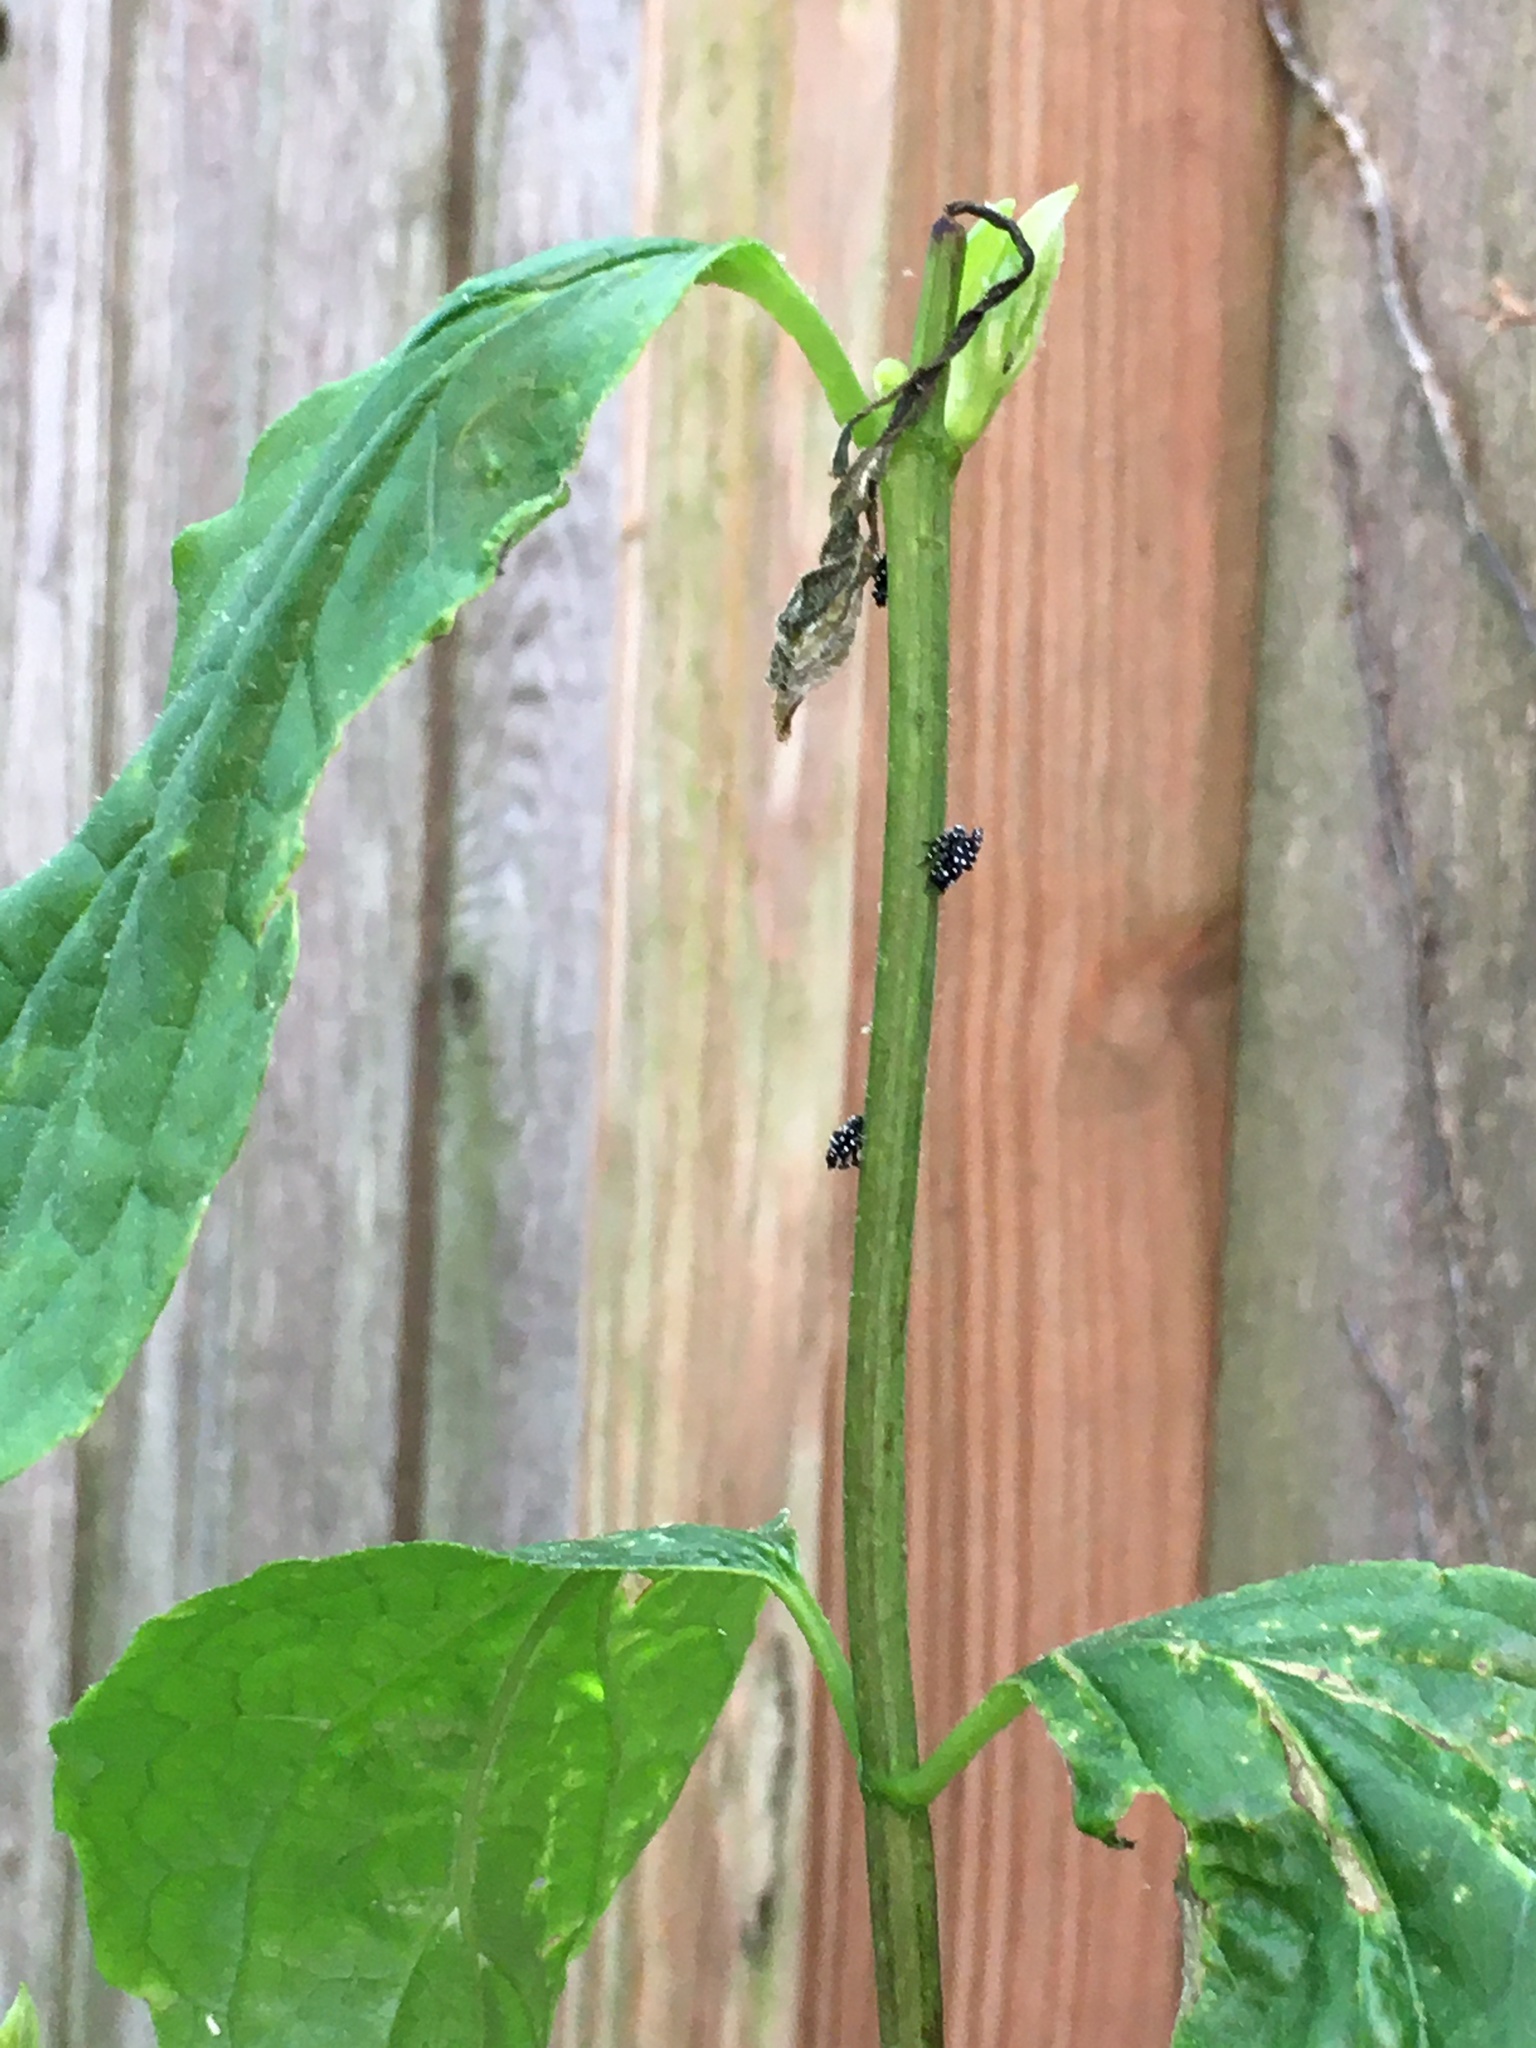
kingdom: Animalia
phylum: Arthropoda
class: Insecta
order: Hemiptera
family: Fulgoridae
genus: Lycorma
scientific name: Lycorma delicatula
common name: Spotted lanternfly
